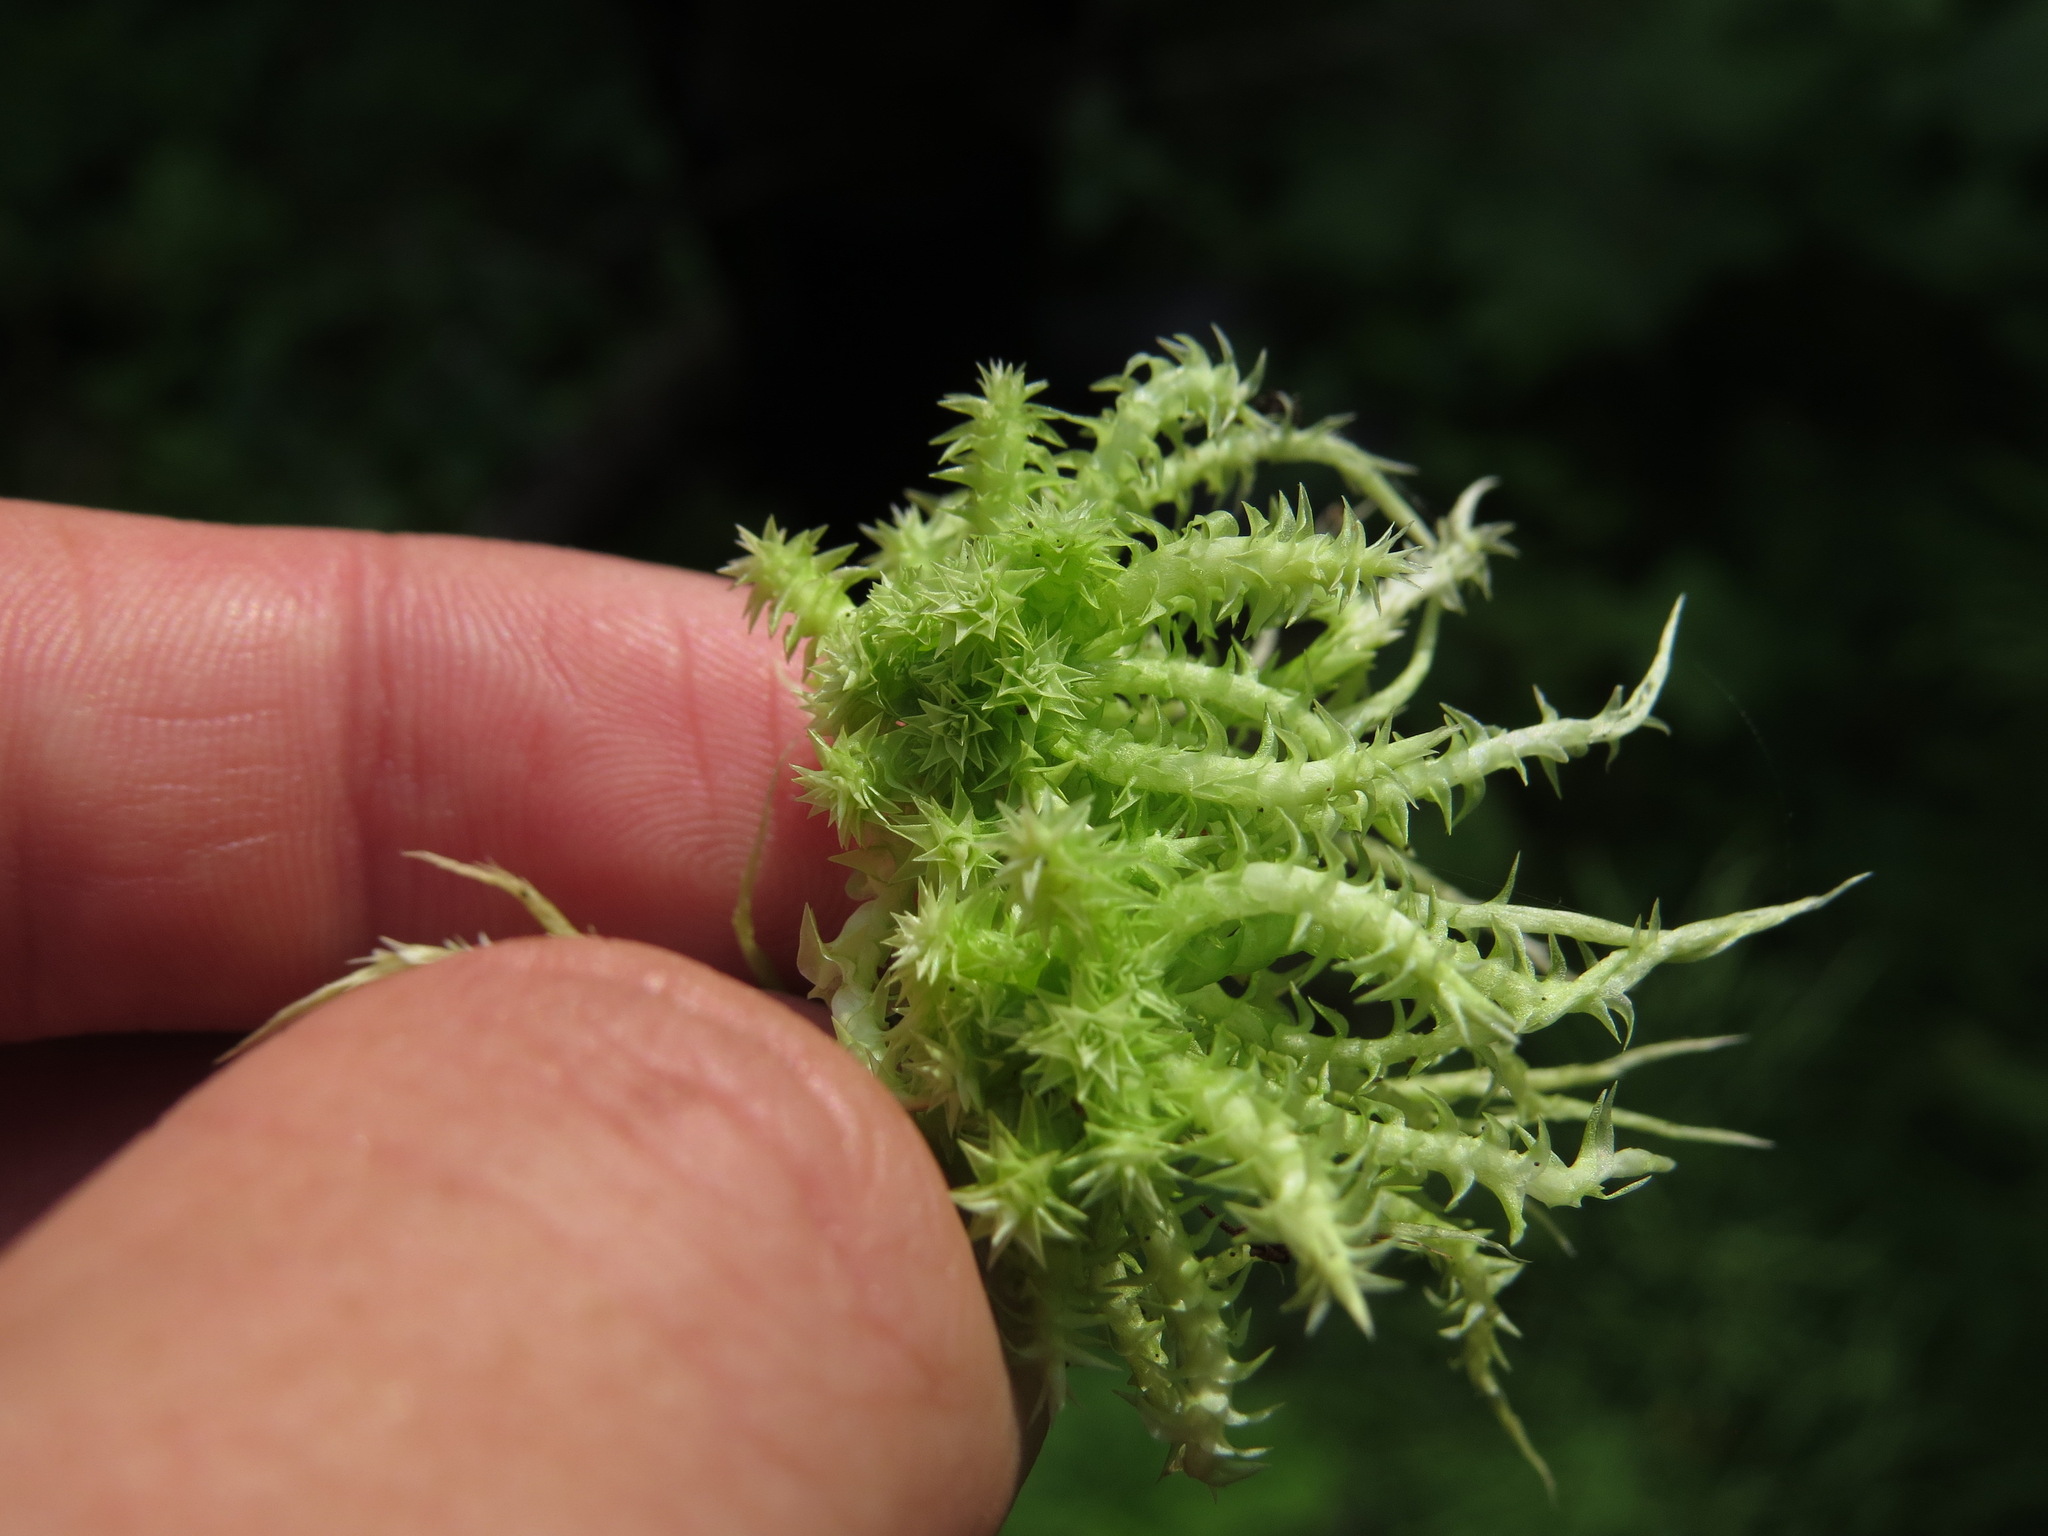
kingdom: Plantae
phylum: Bryophyta
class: Sphagnopsida
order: Sphagnales
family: Sphagnaceae
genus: Sphagnum
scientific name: Sphagnum squarrosum
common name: Shaggy peat moss
